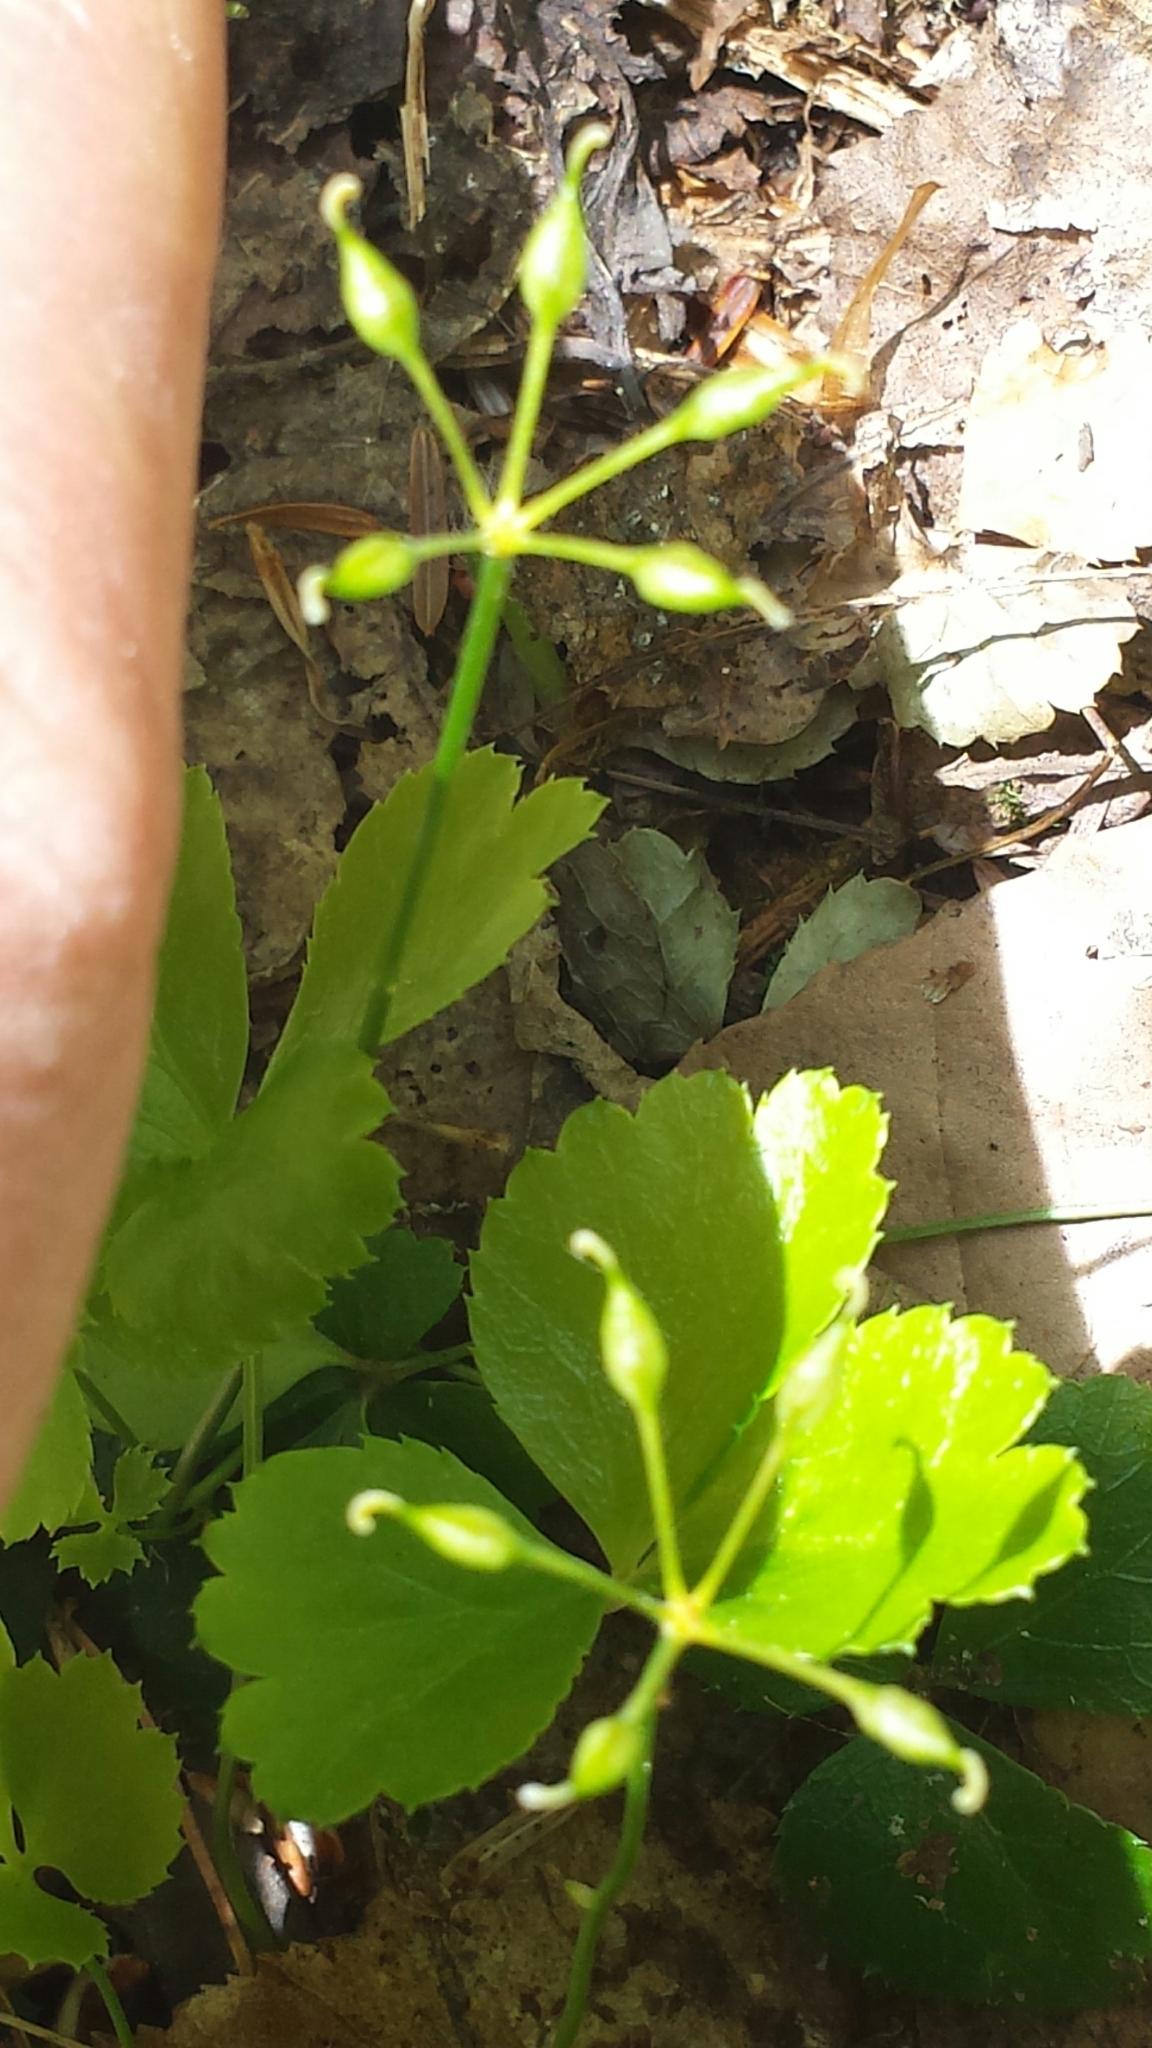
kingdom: Plantae
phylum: Tracheophyta
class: Magnoliopsida
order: Ranunculales
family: Ranunculaceae
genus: Coptis
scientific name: Coptis trifolia
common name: Canker-root
